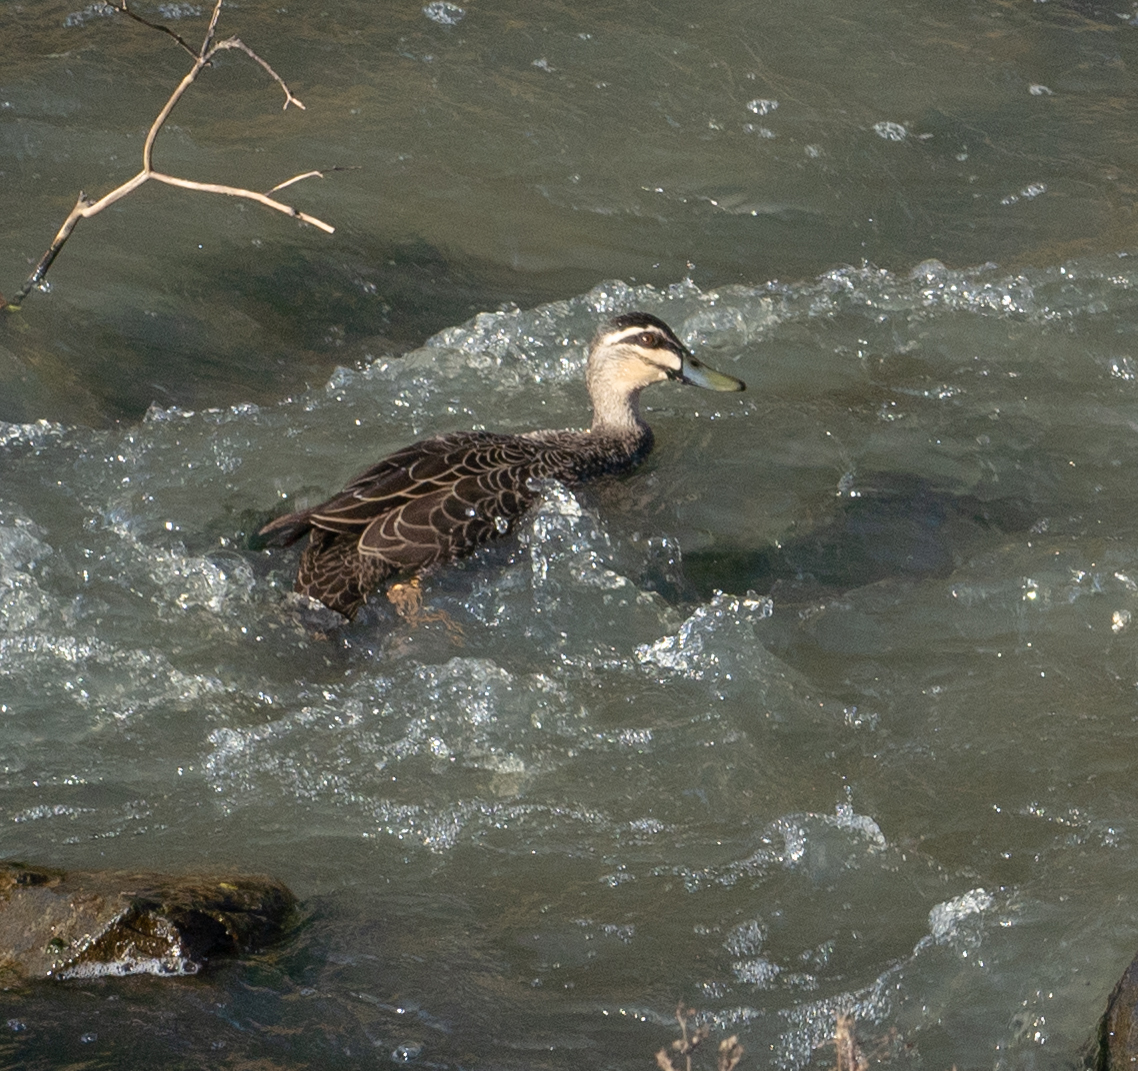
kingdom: Animalia
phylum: Chordata
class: Aves
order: Anseriformes
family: Anatidae
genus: Anas
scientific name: Anas superciliosa
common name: Pacific black duck
